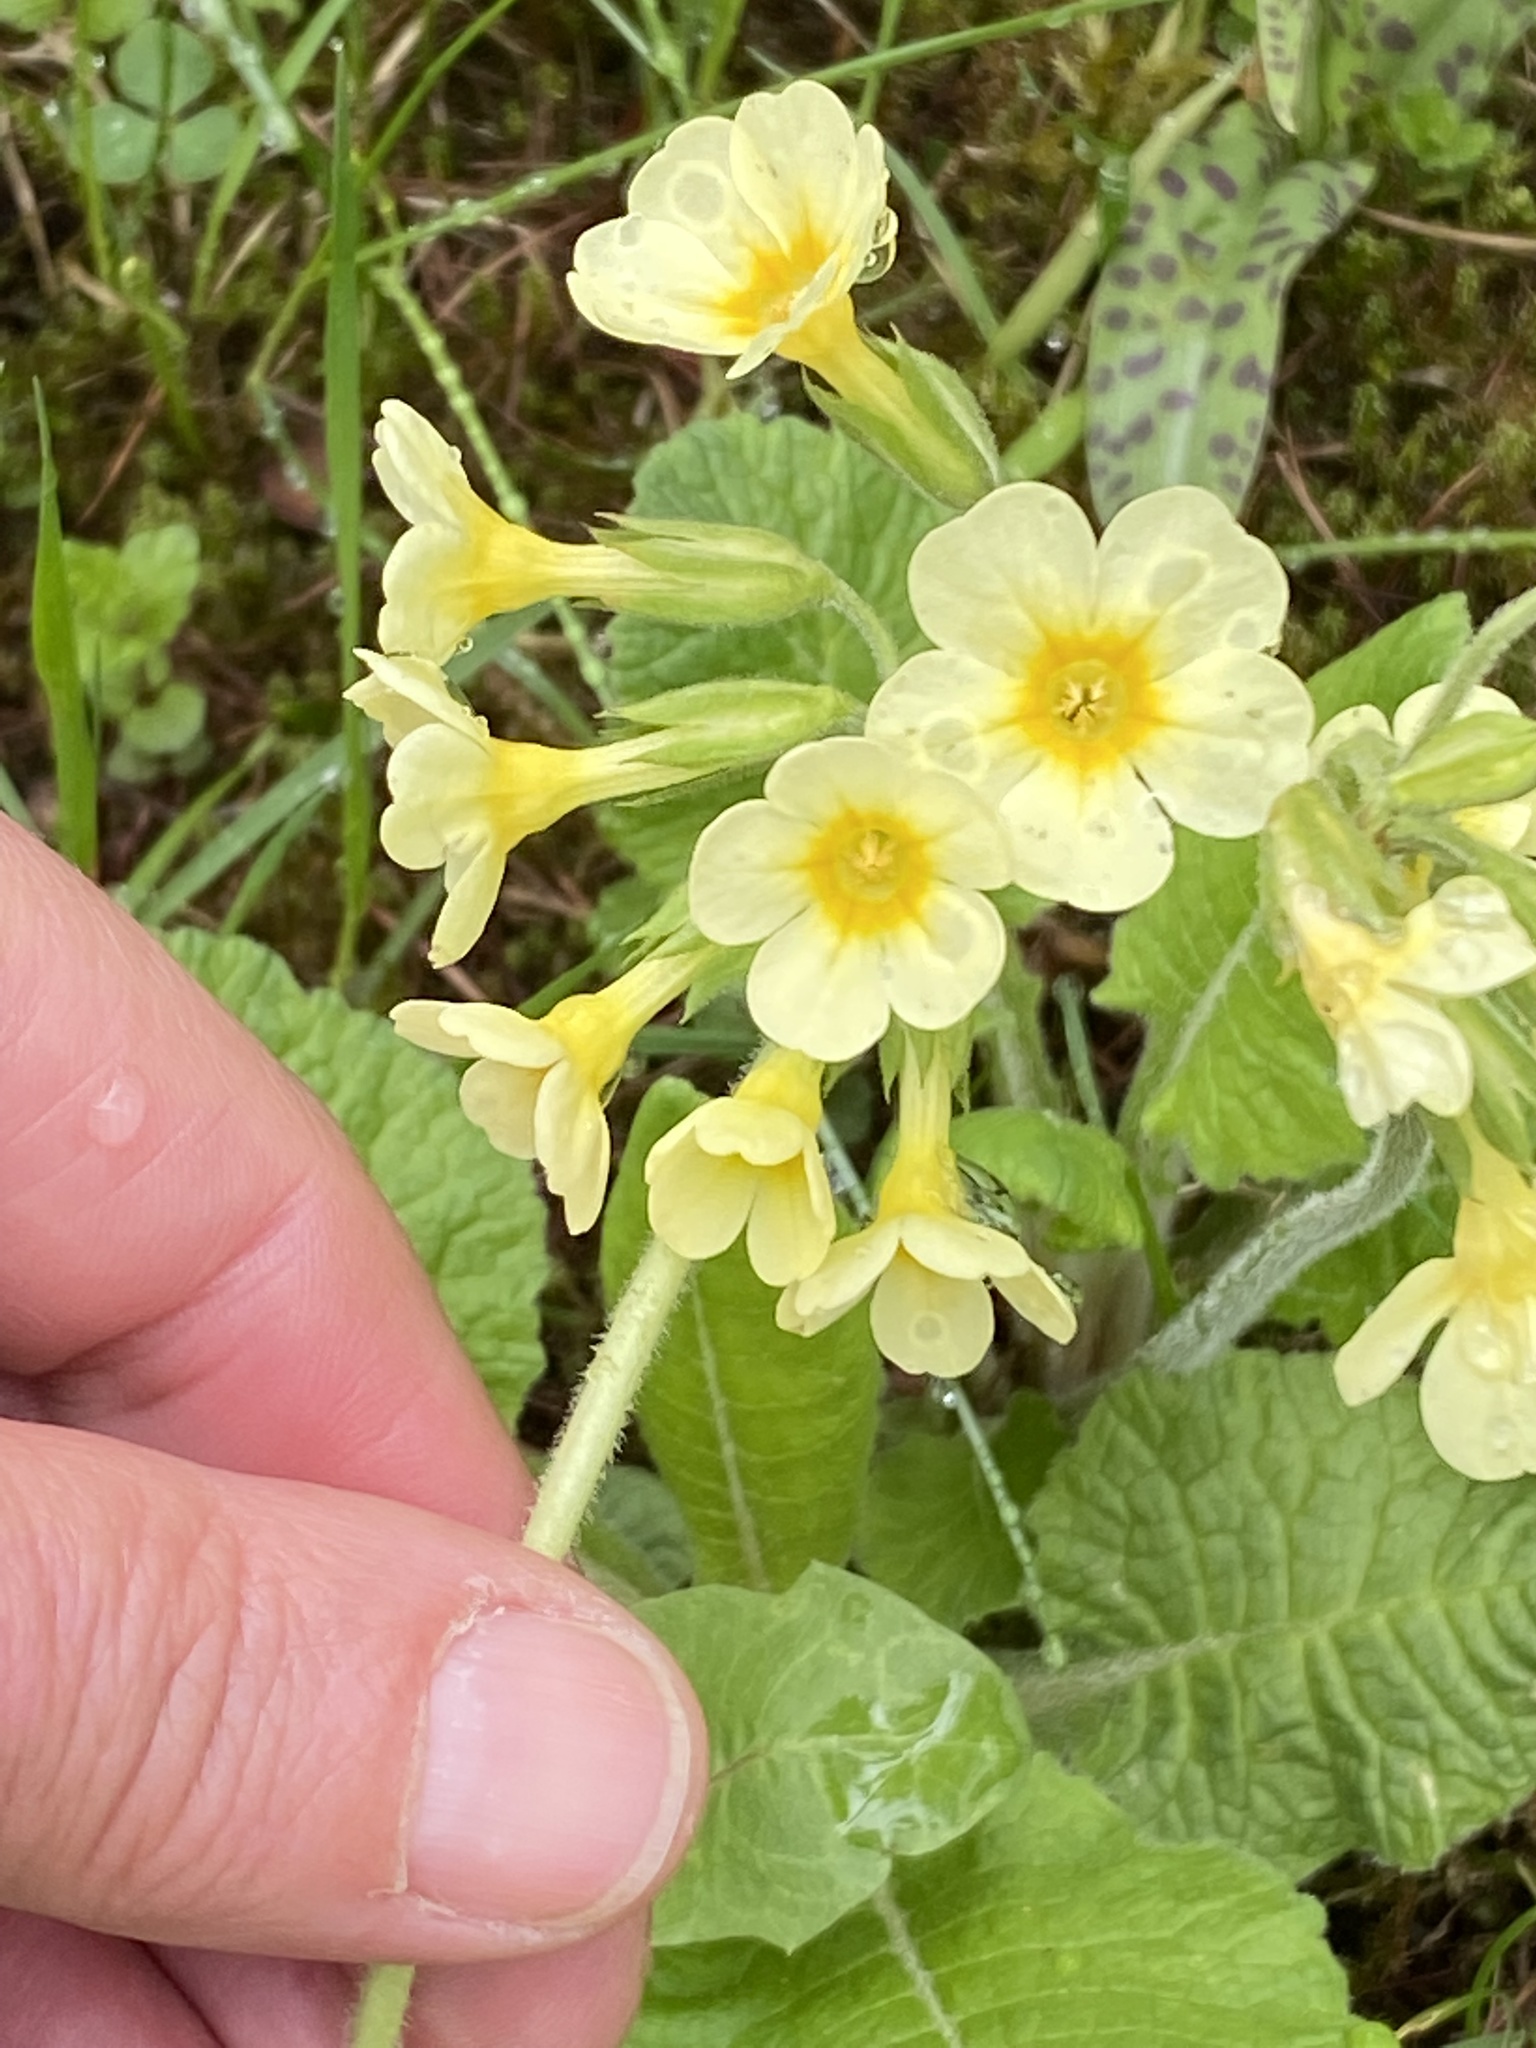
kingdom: Plantae
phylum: Tracheophyta
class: Magnoliopsida
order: Ericales
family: Primulaceae
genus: Primula
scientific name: Primula elatior
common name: Oxlip
